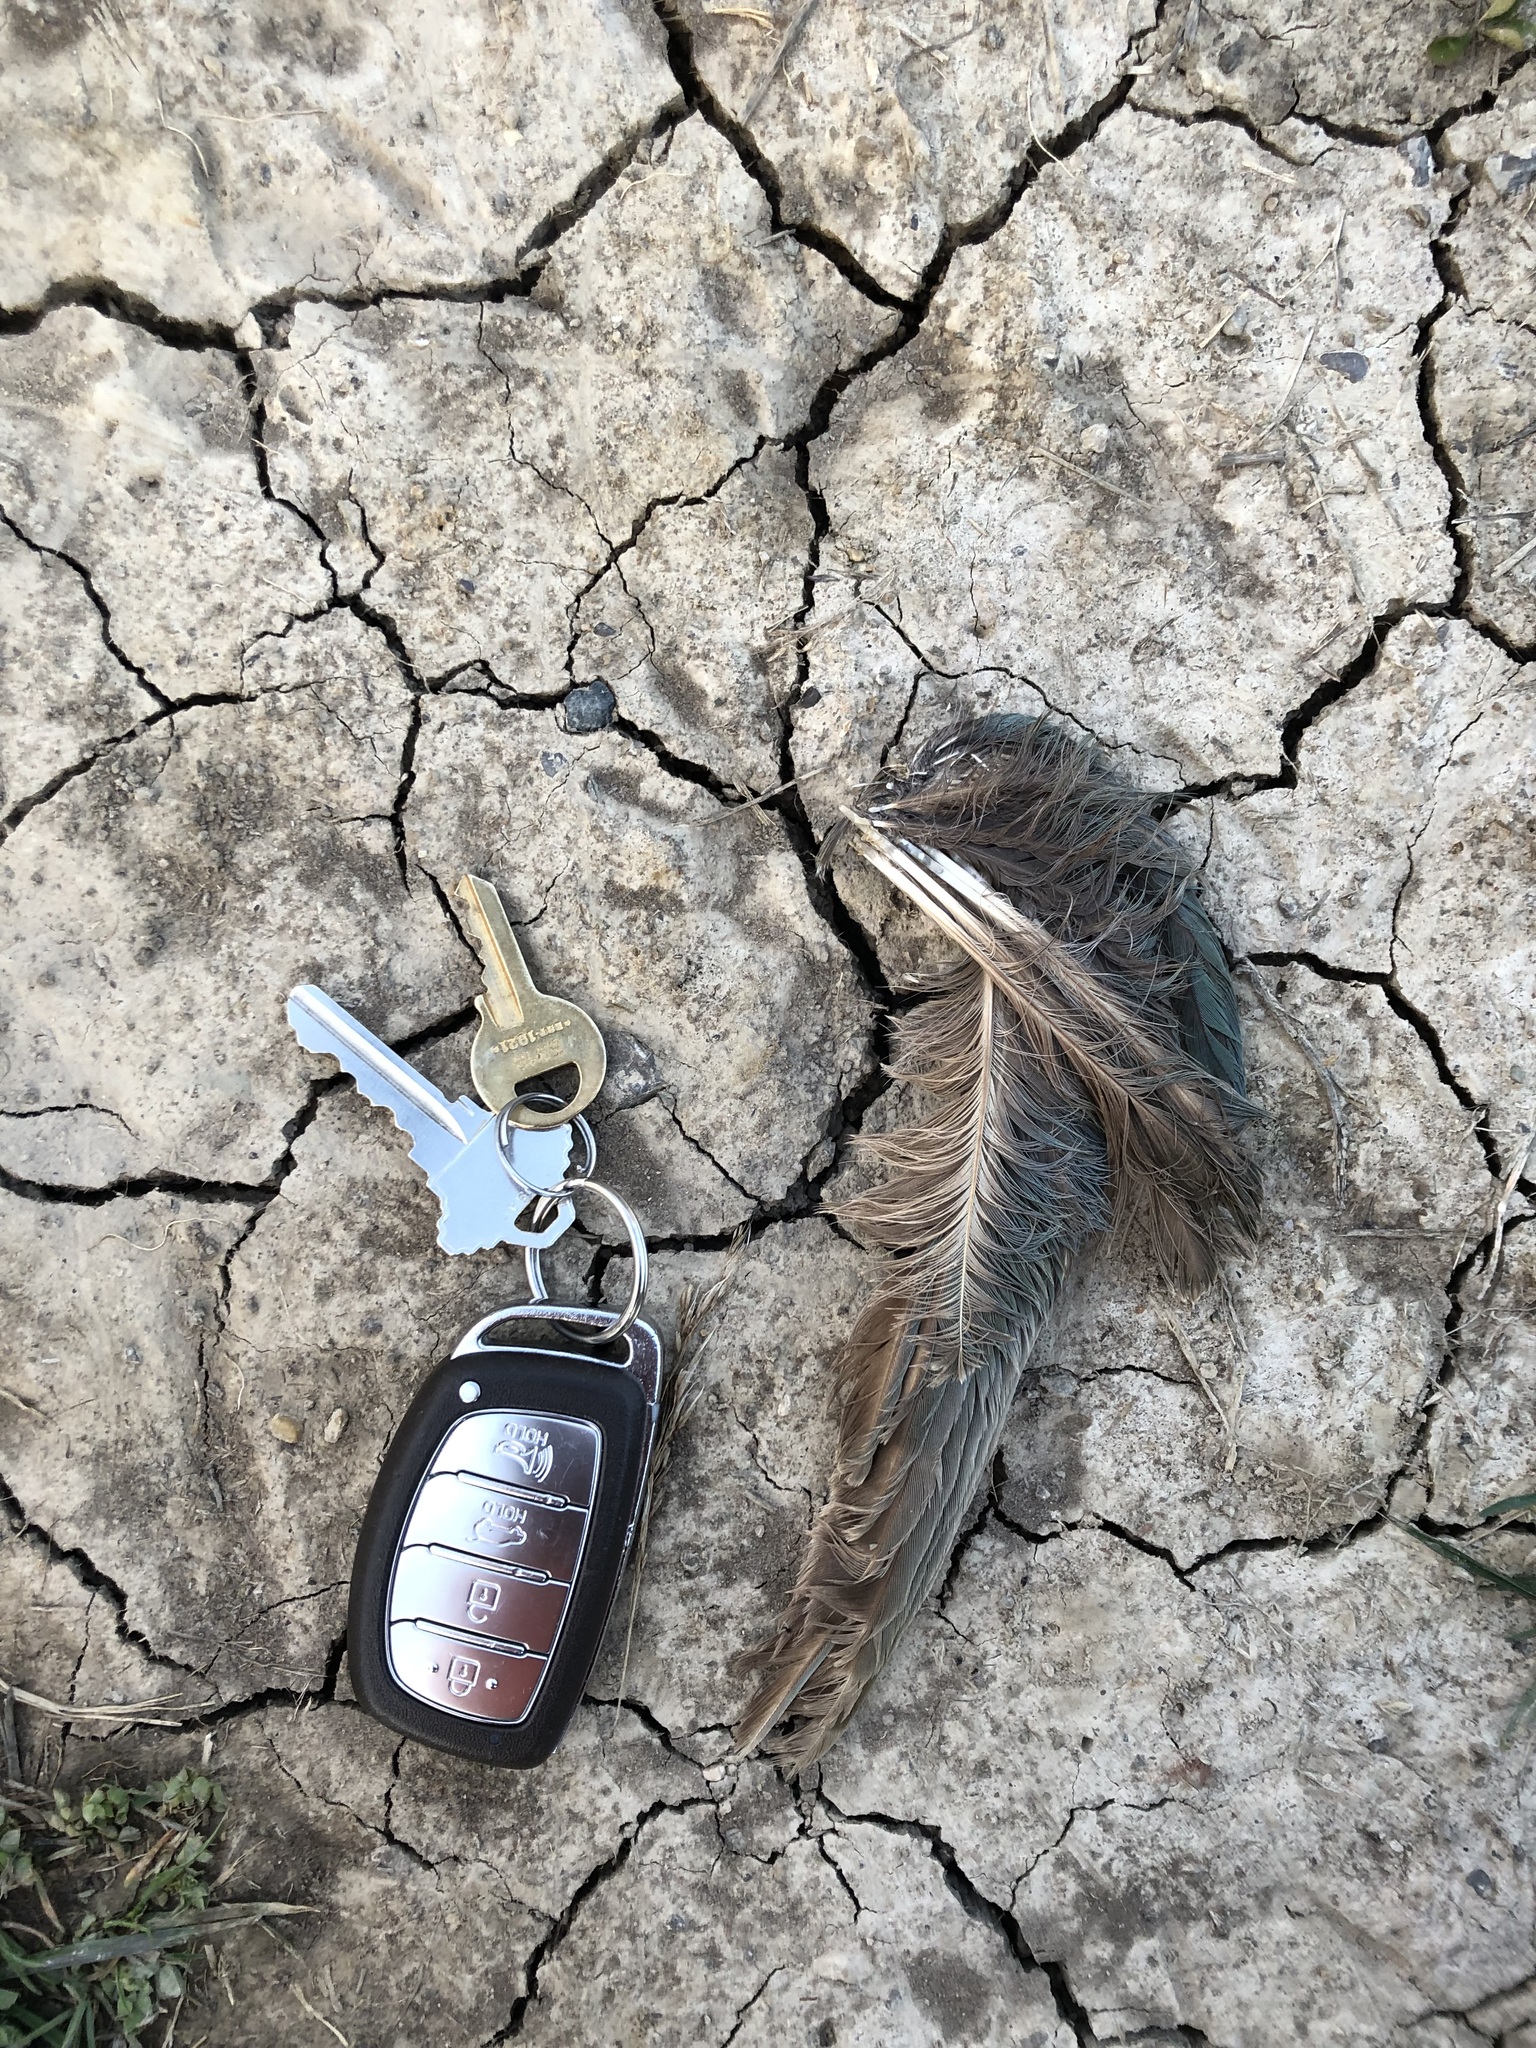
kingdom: Animalia
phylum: Chordata
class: Aves
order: Gruiformes
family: Rallidae
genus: Porphyrio
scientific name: Porphyrio martinica
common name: Purple gallinule
